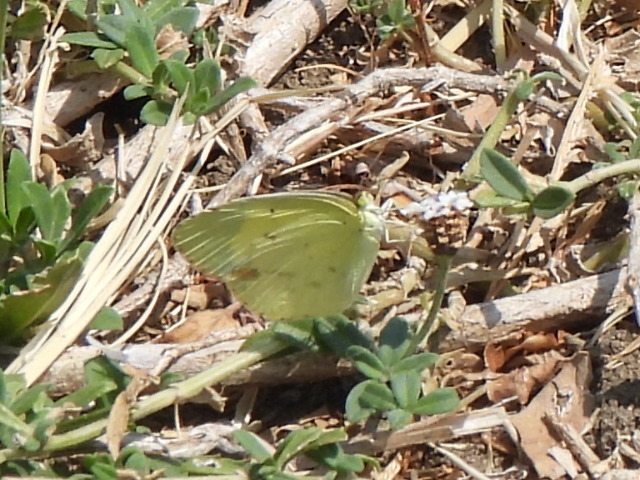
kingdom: Animalia
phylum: Arthropoda
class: Insecta
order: Lepidoptera
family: Pieridae
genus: Pyrisitia
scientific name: Pyrisitia lisa
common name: Little yellow
